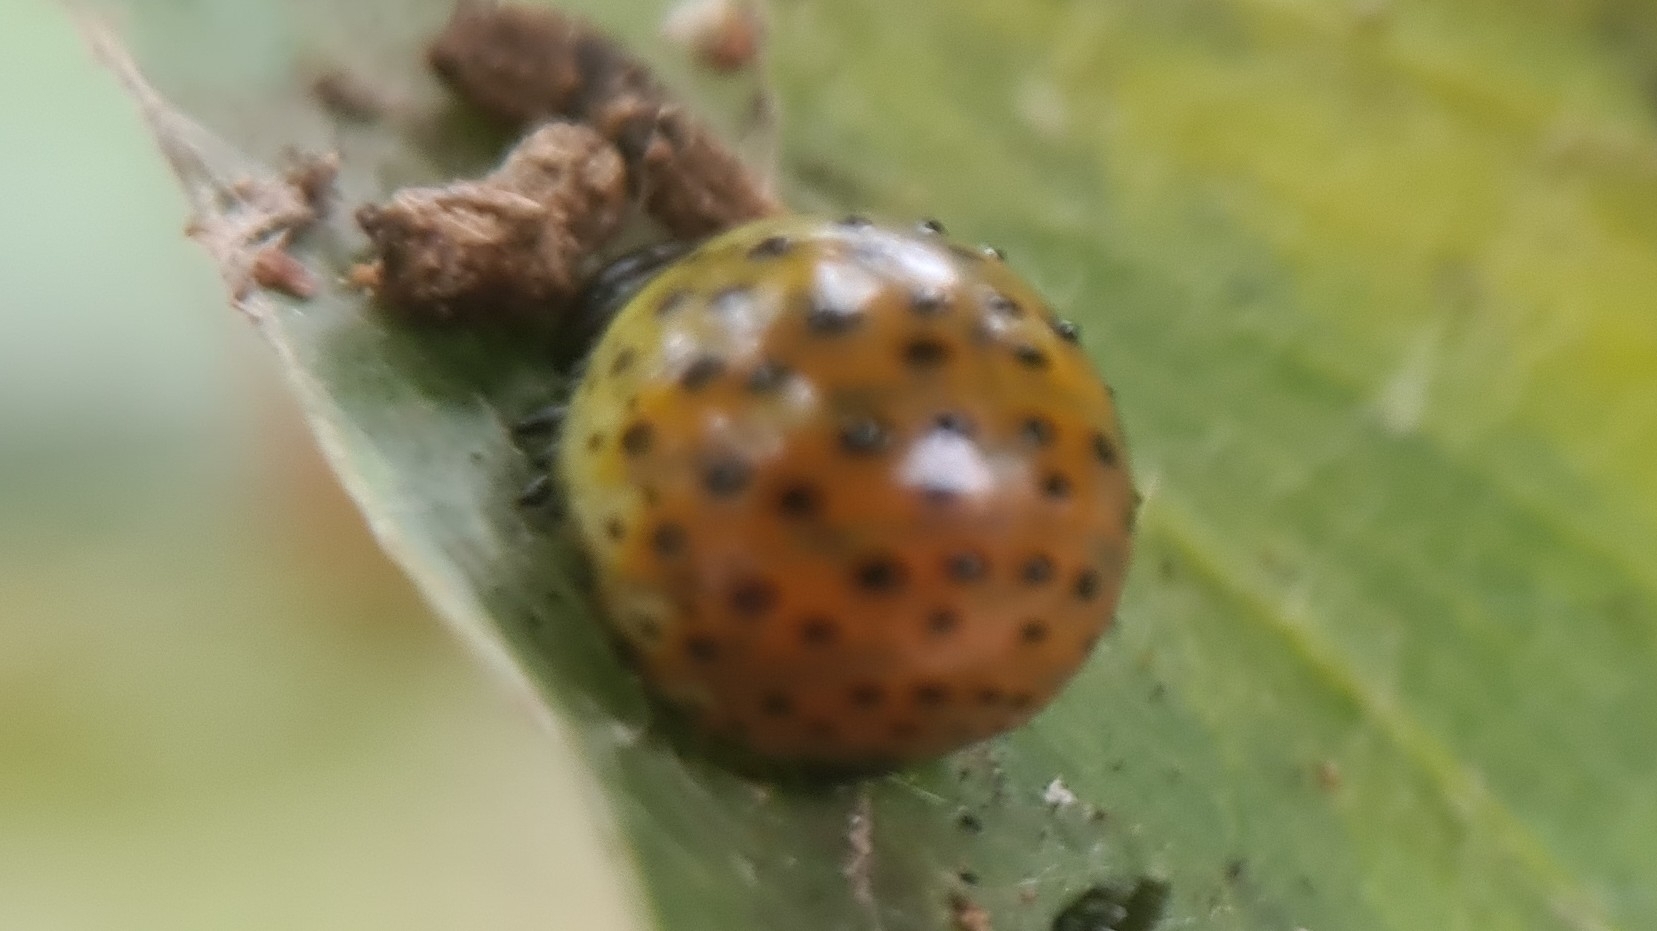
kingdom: Animalia
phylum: Arthropoda
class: Insecta
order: Coleoptera
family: Chrysomelidae
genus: Dicranosterna
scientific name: Dicranosterna
